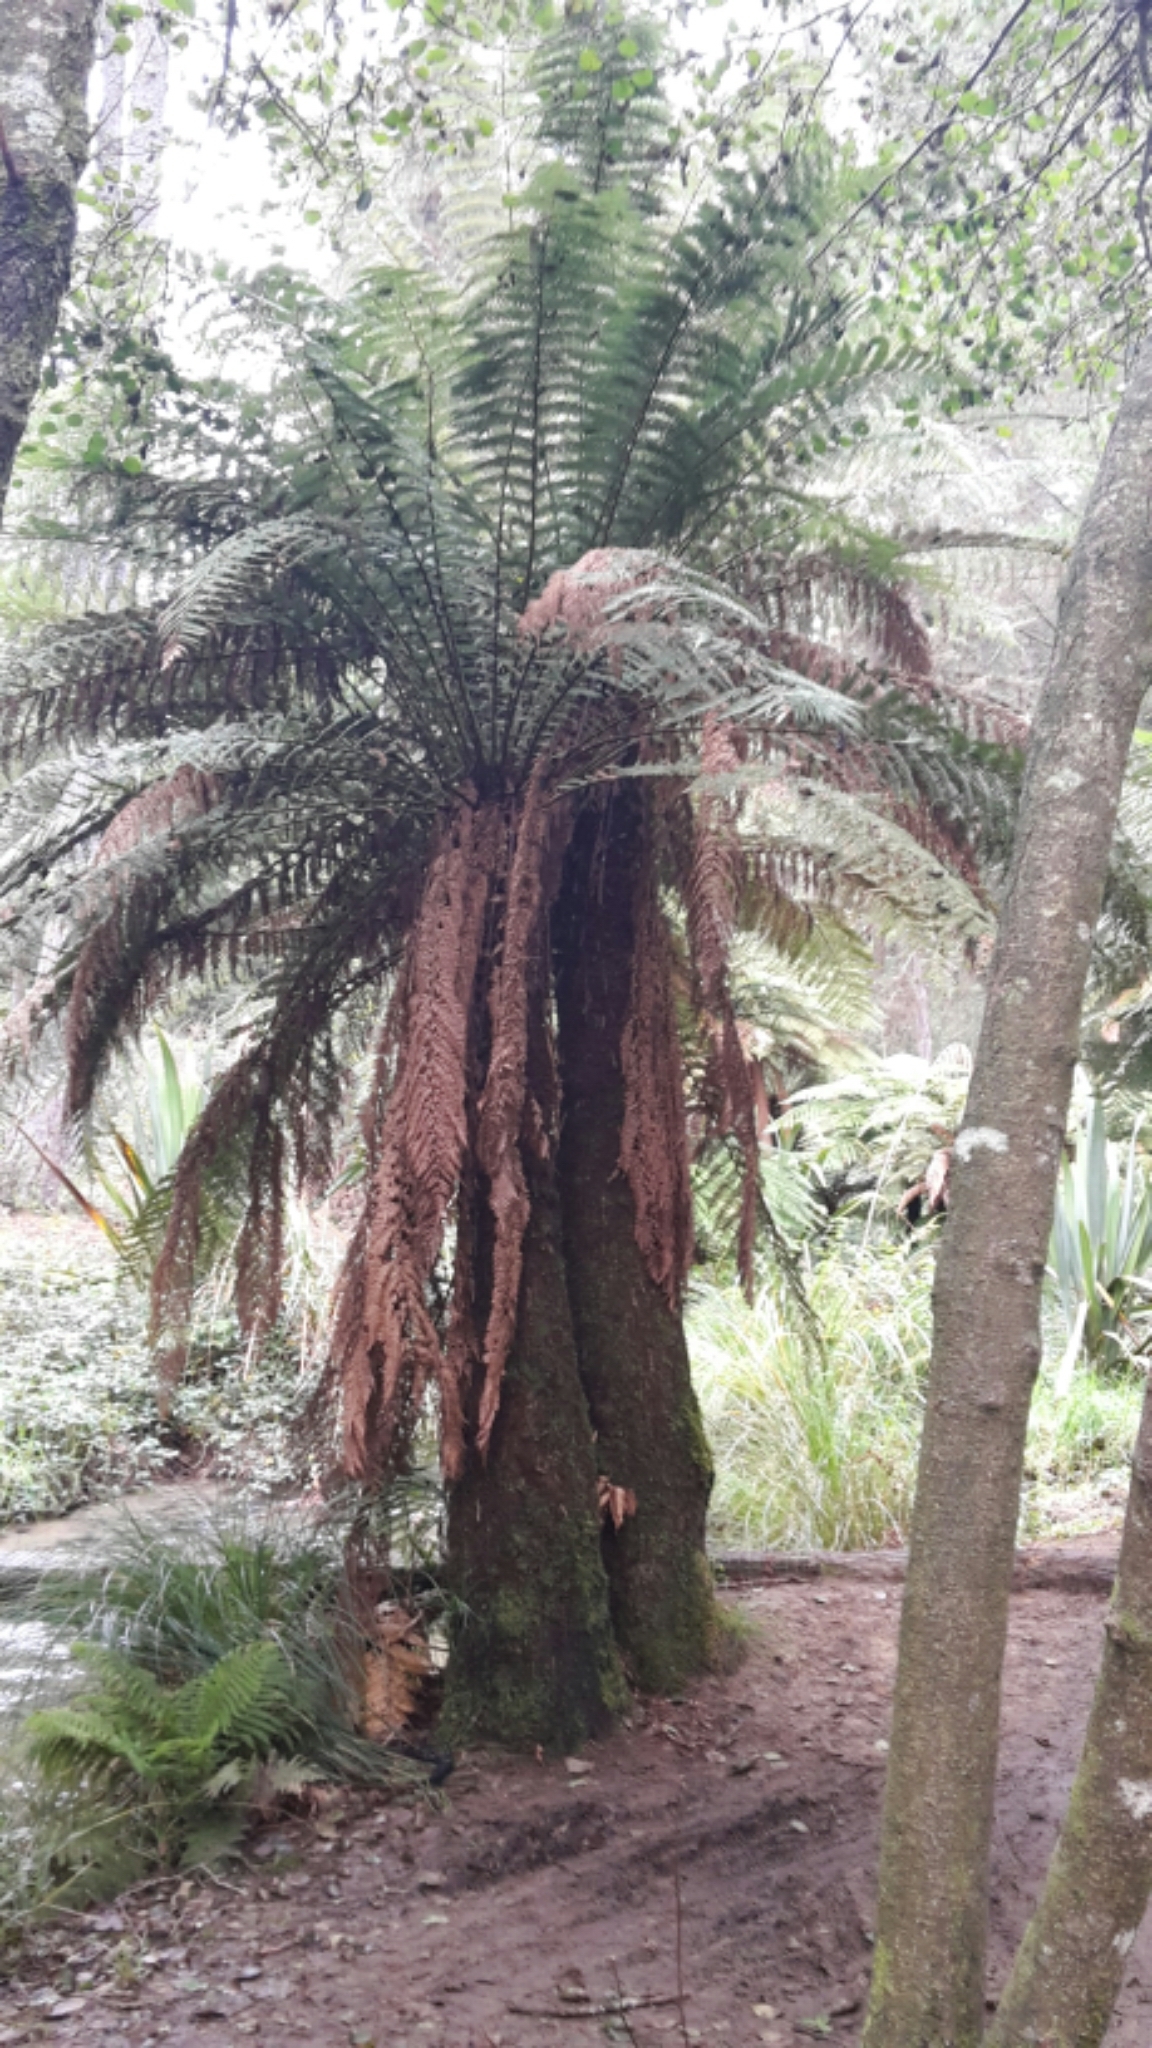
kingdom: Plantae
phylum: Tracheophyta
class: Polypodiopsida
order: Cyatheales
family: Dicksoniaceae
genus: Dicksonia
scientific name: Dicksonia fibrosa
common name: Golden tree fern
